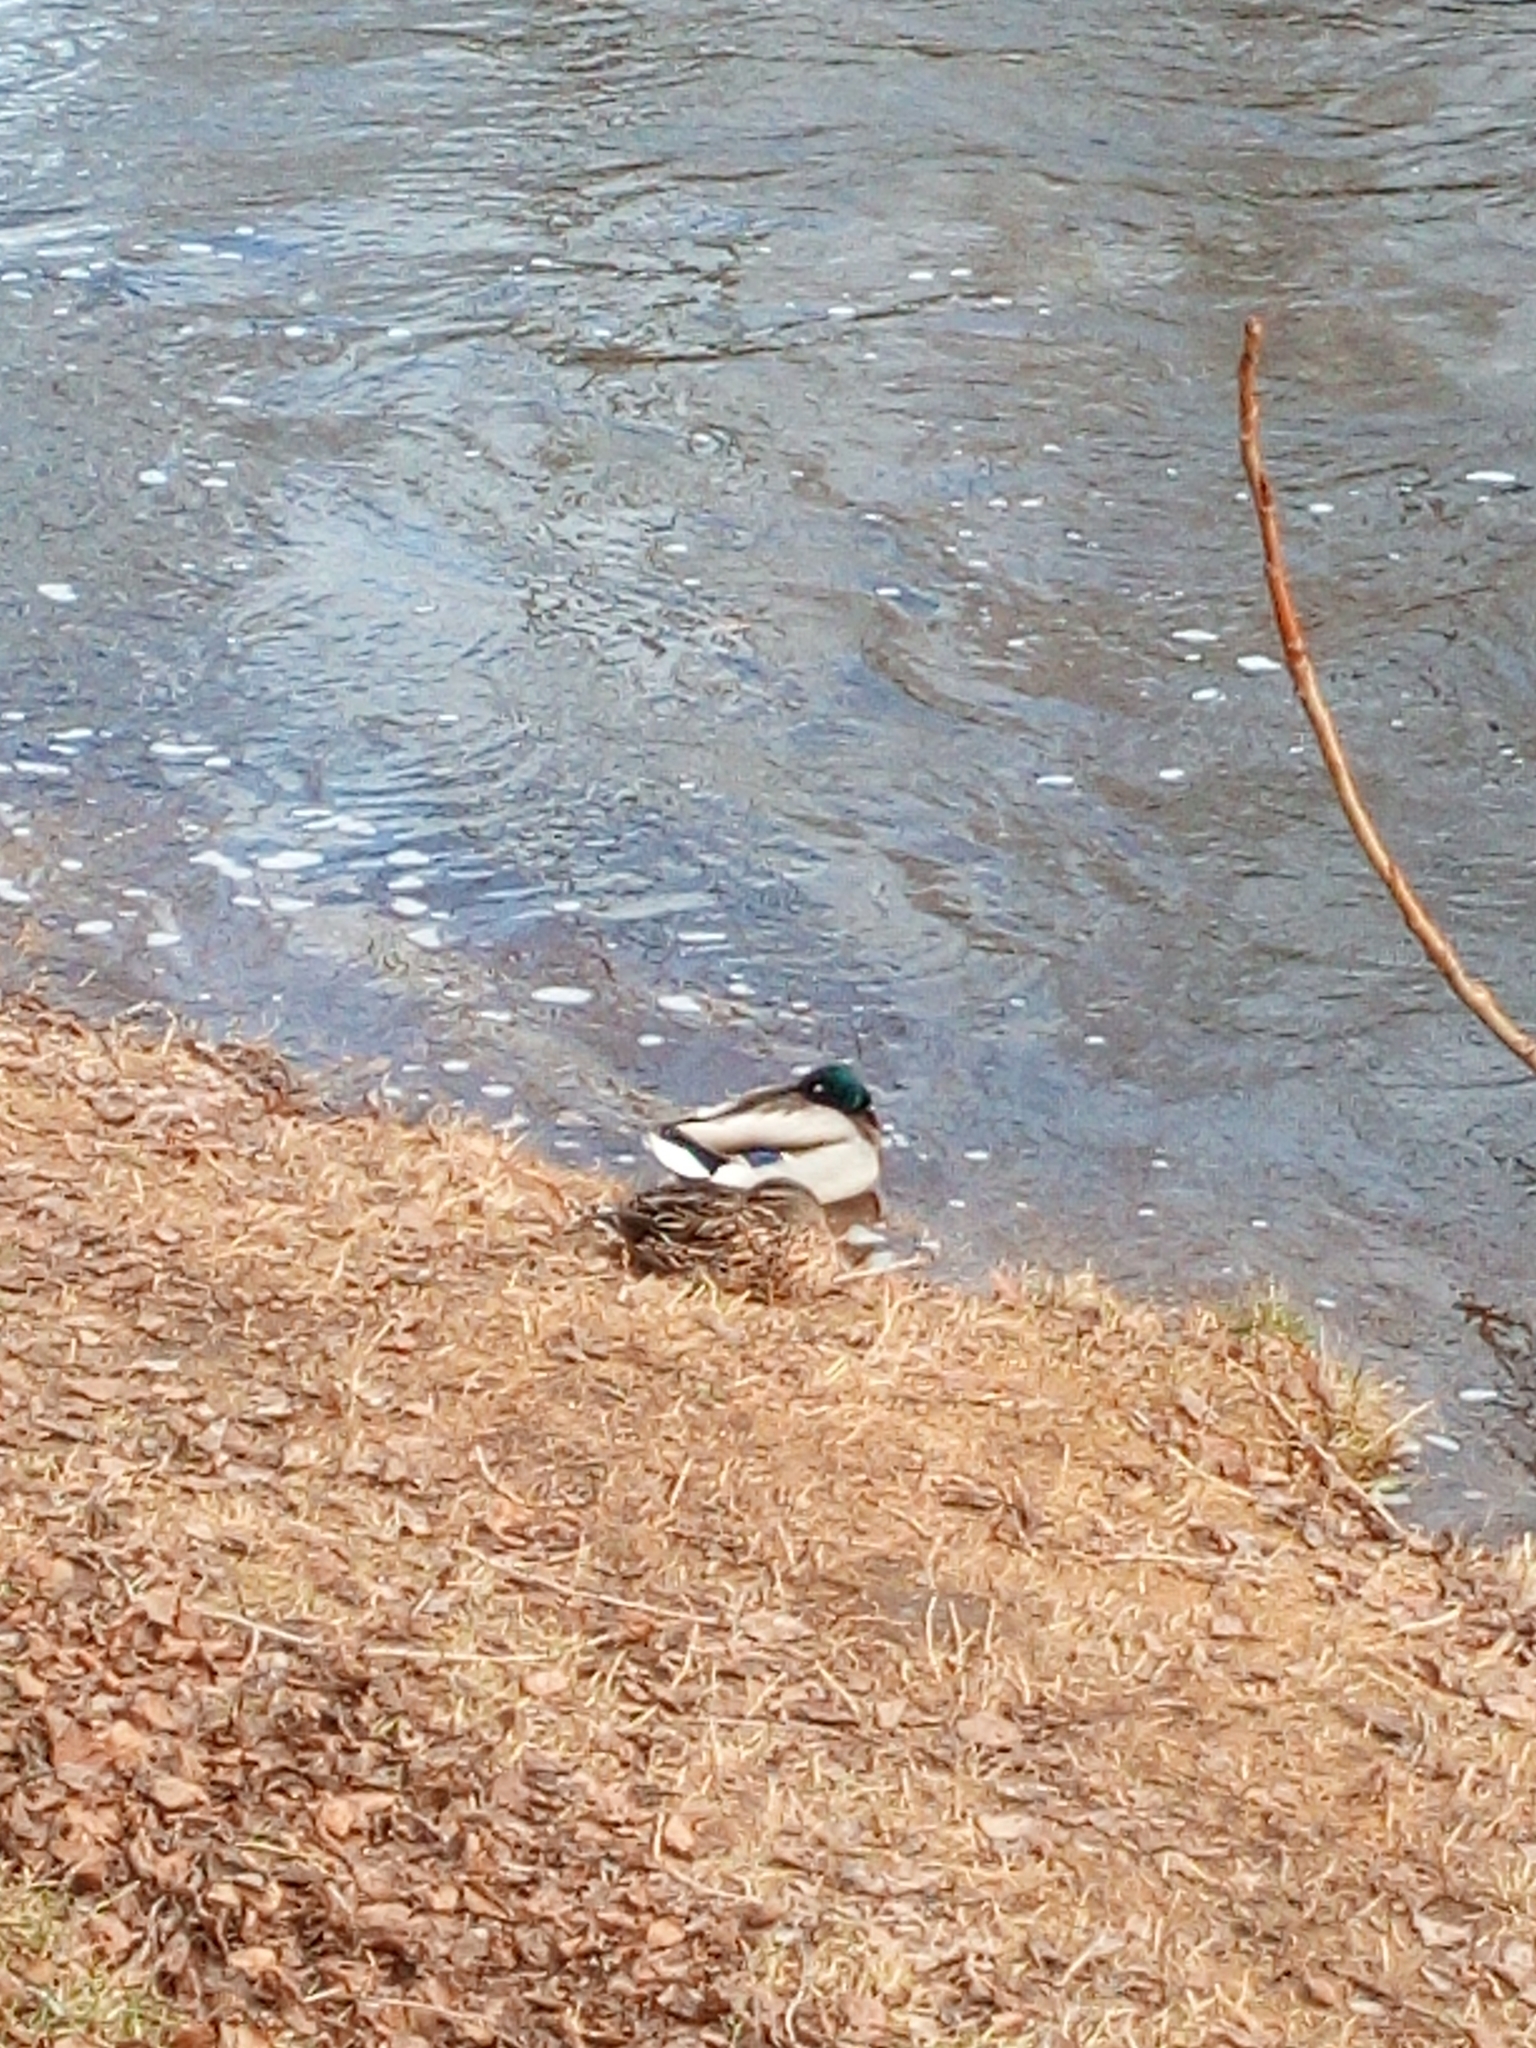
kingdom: Animalia
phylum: Chordata
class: Aves
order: Anseriformes
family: Anatidae
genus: Anas
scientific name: Anas platyrhynchos
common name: Mallard
